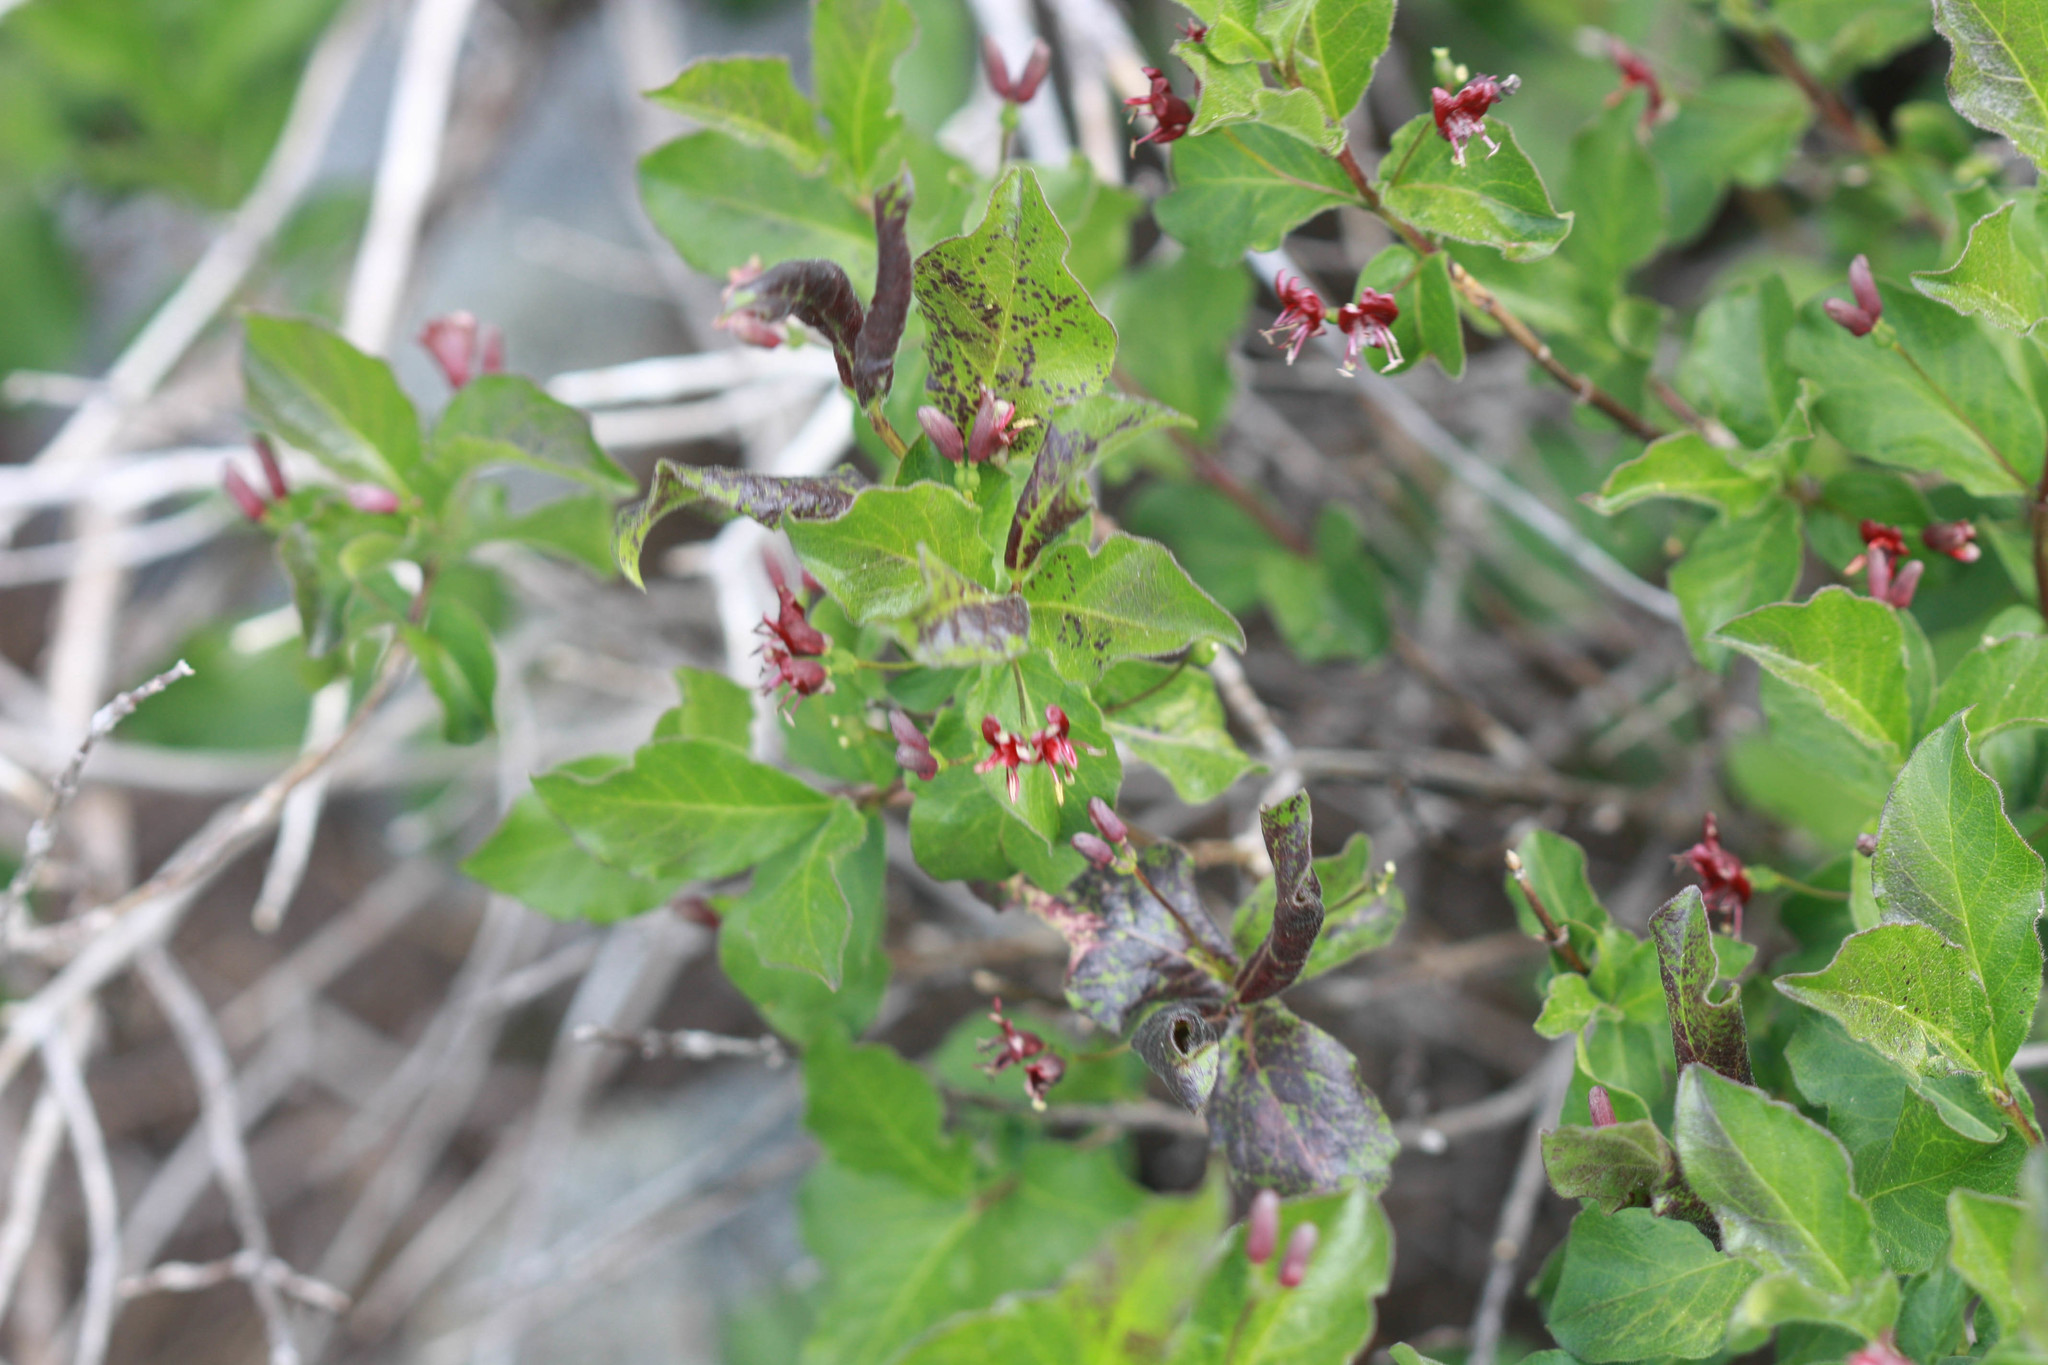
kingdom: Plantae
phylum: Tracheophyta
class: Magnoliopsida
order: Dipsacales
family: Caprifoliaceae
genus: Lonicera
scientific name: Lonicera conjugialis
